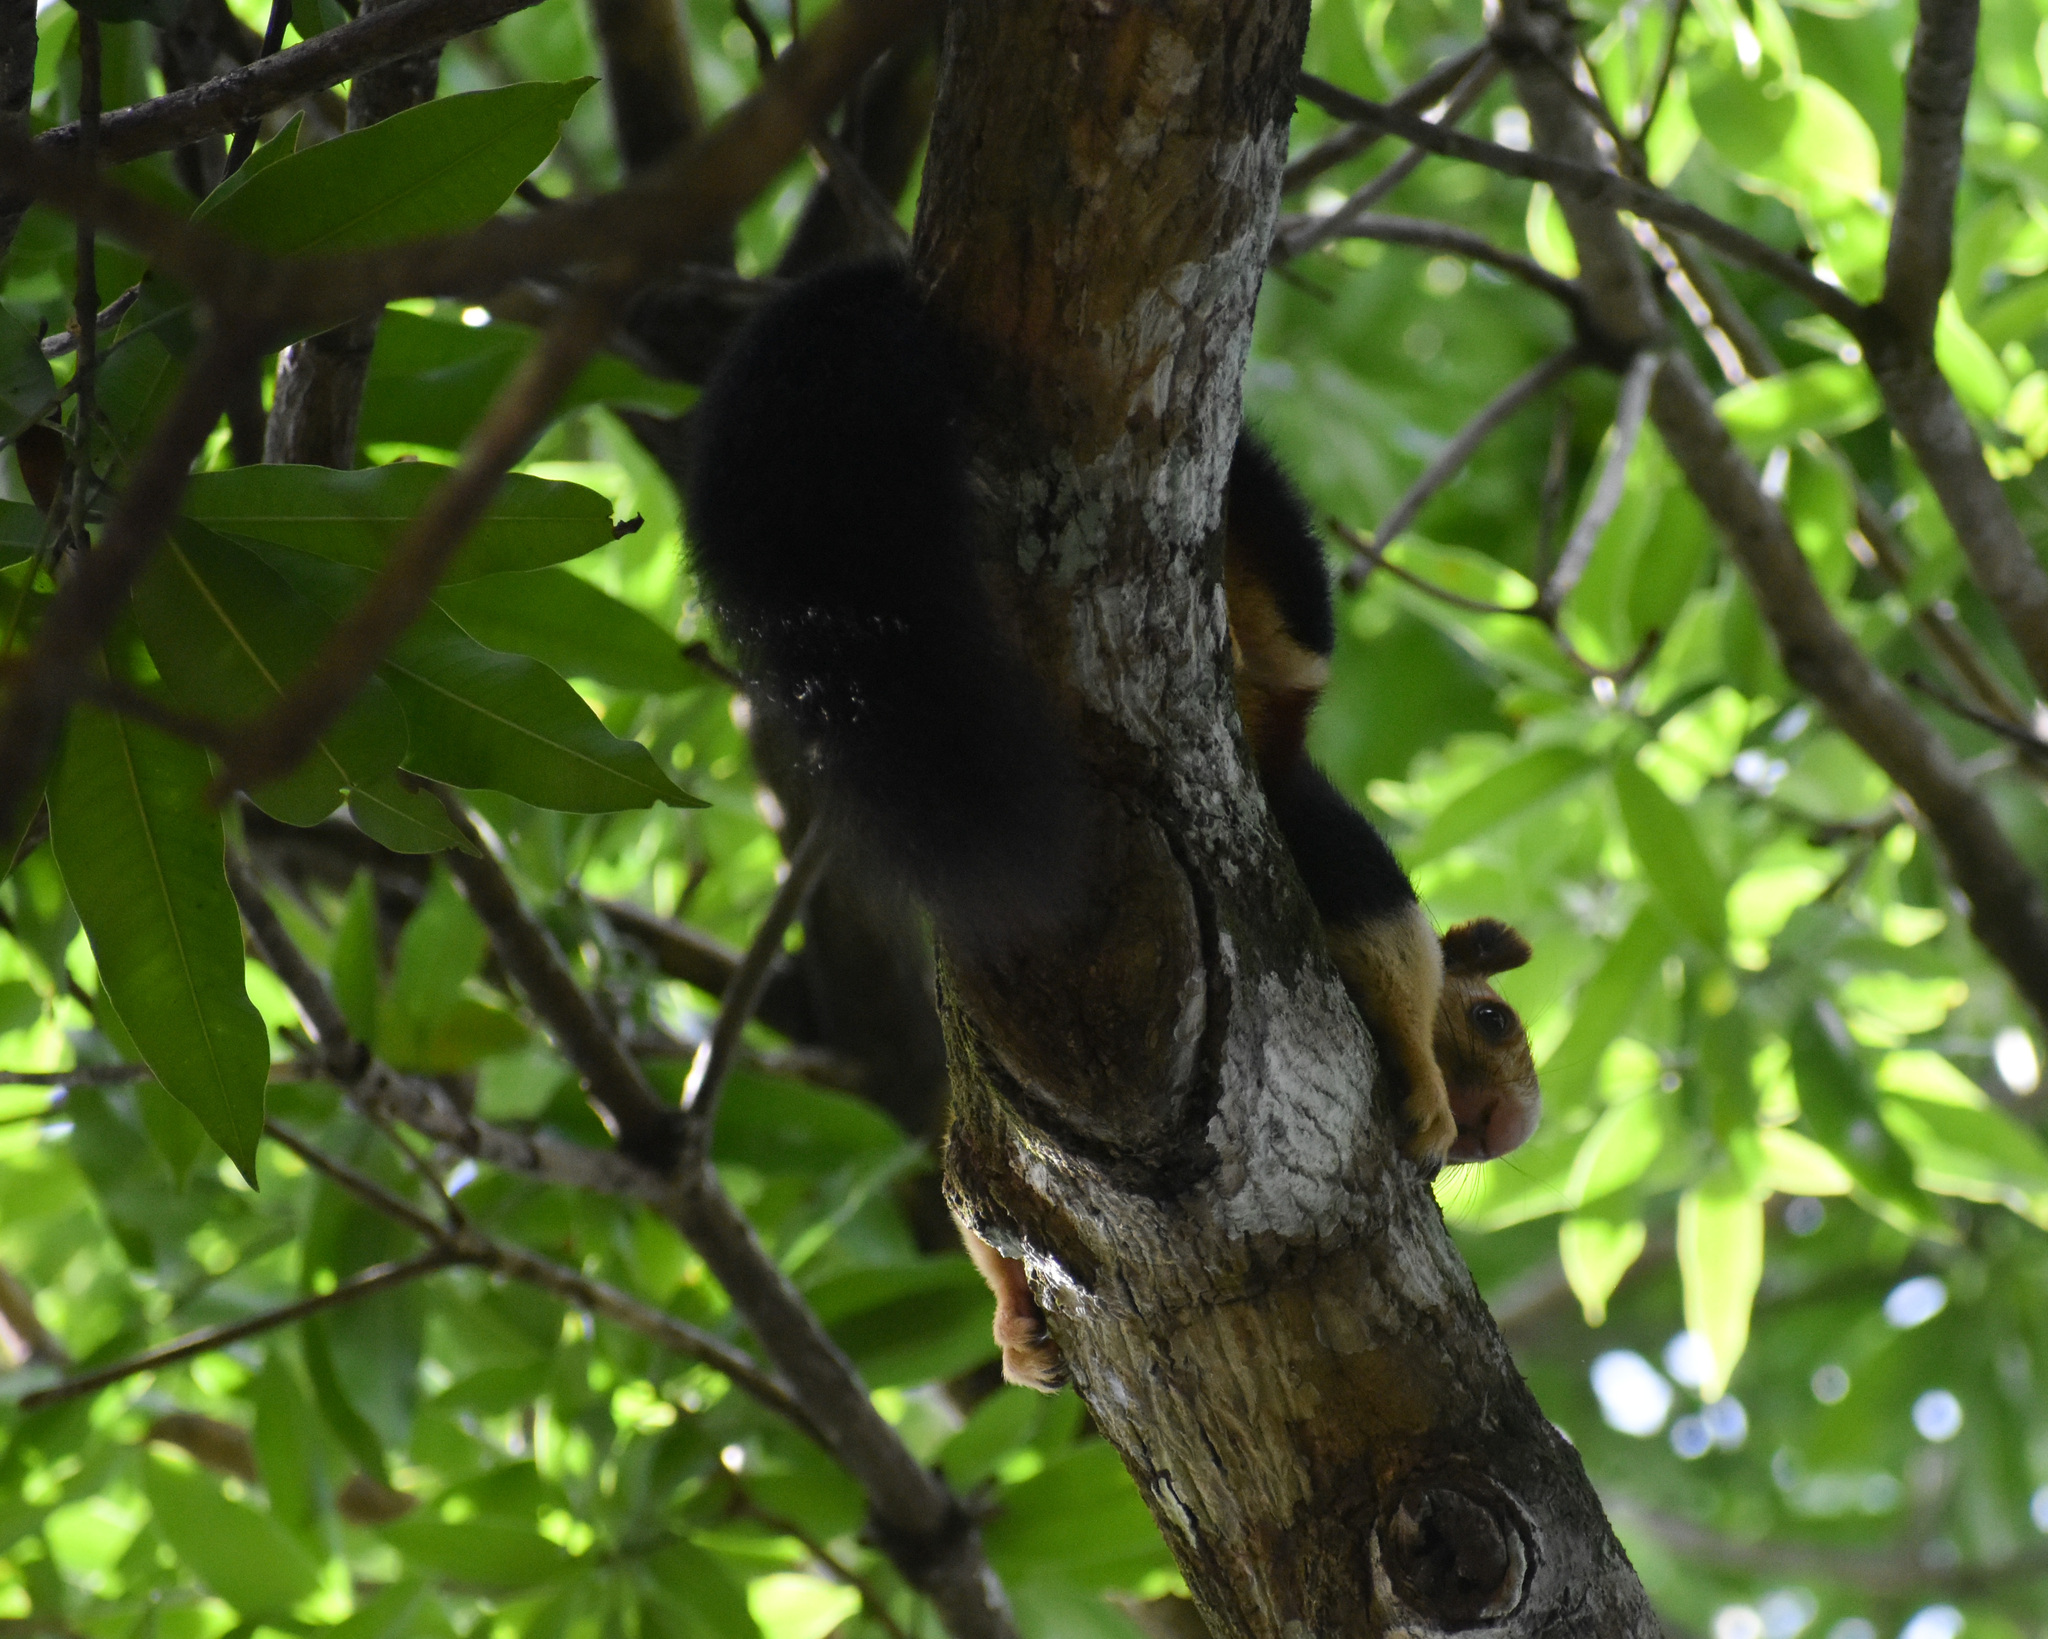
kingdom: Animalia
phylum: Chordata
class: Mammalia
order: Rodentia
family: Sciuridae
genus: Ratufa
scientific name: Ratufa indica
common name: Indian giant squirrel
